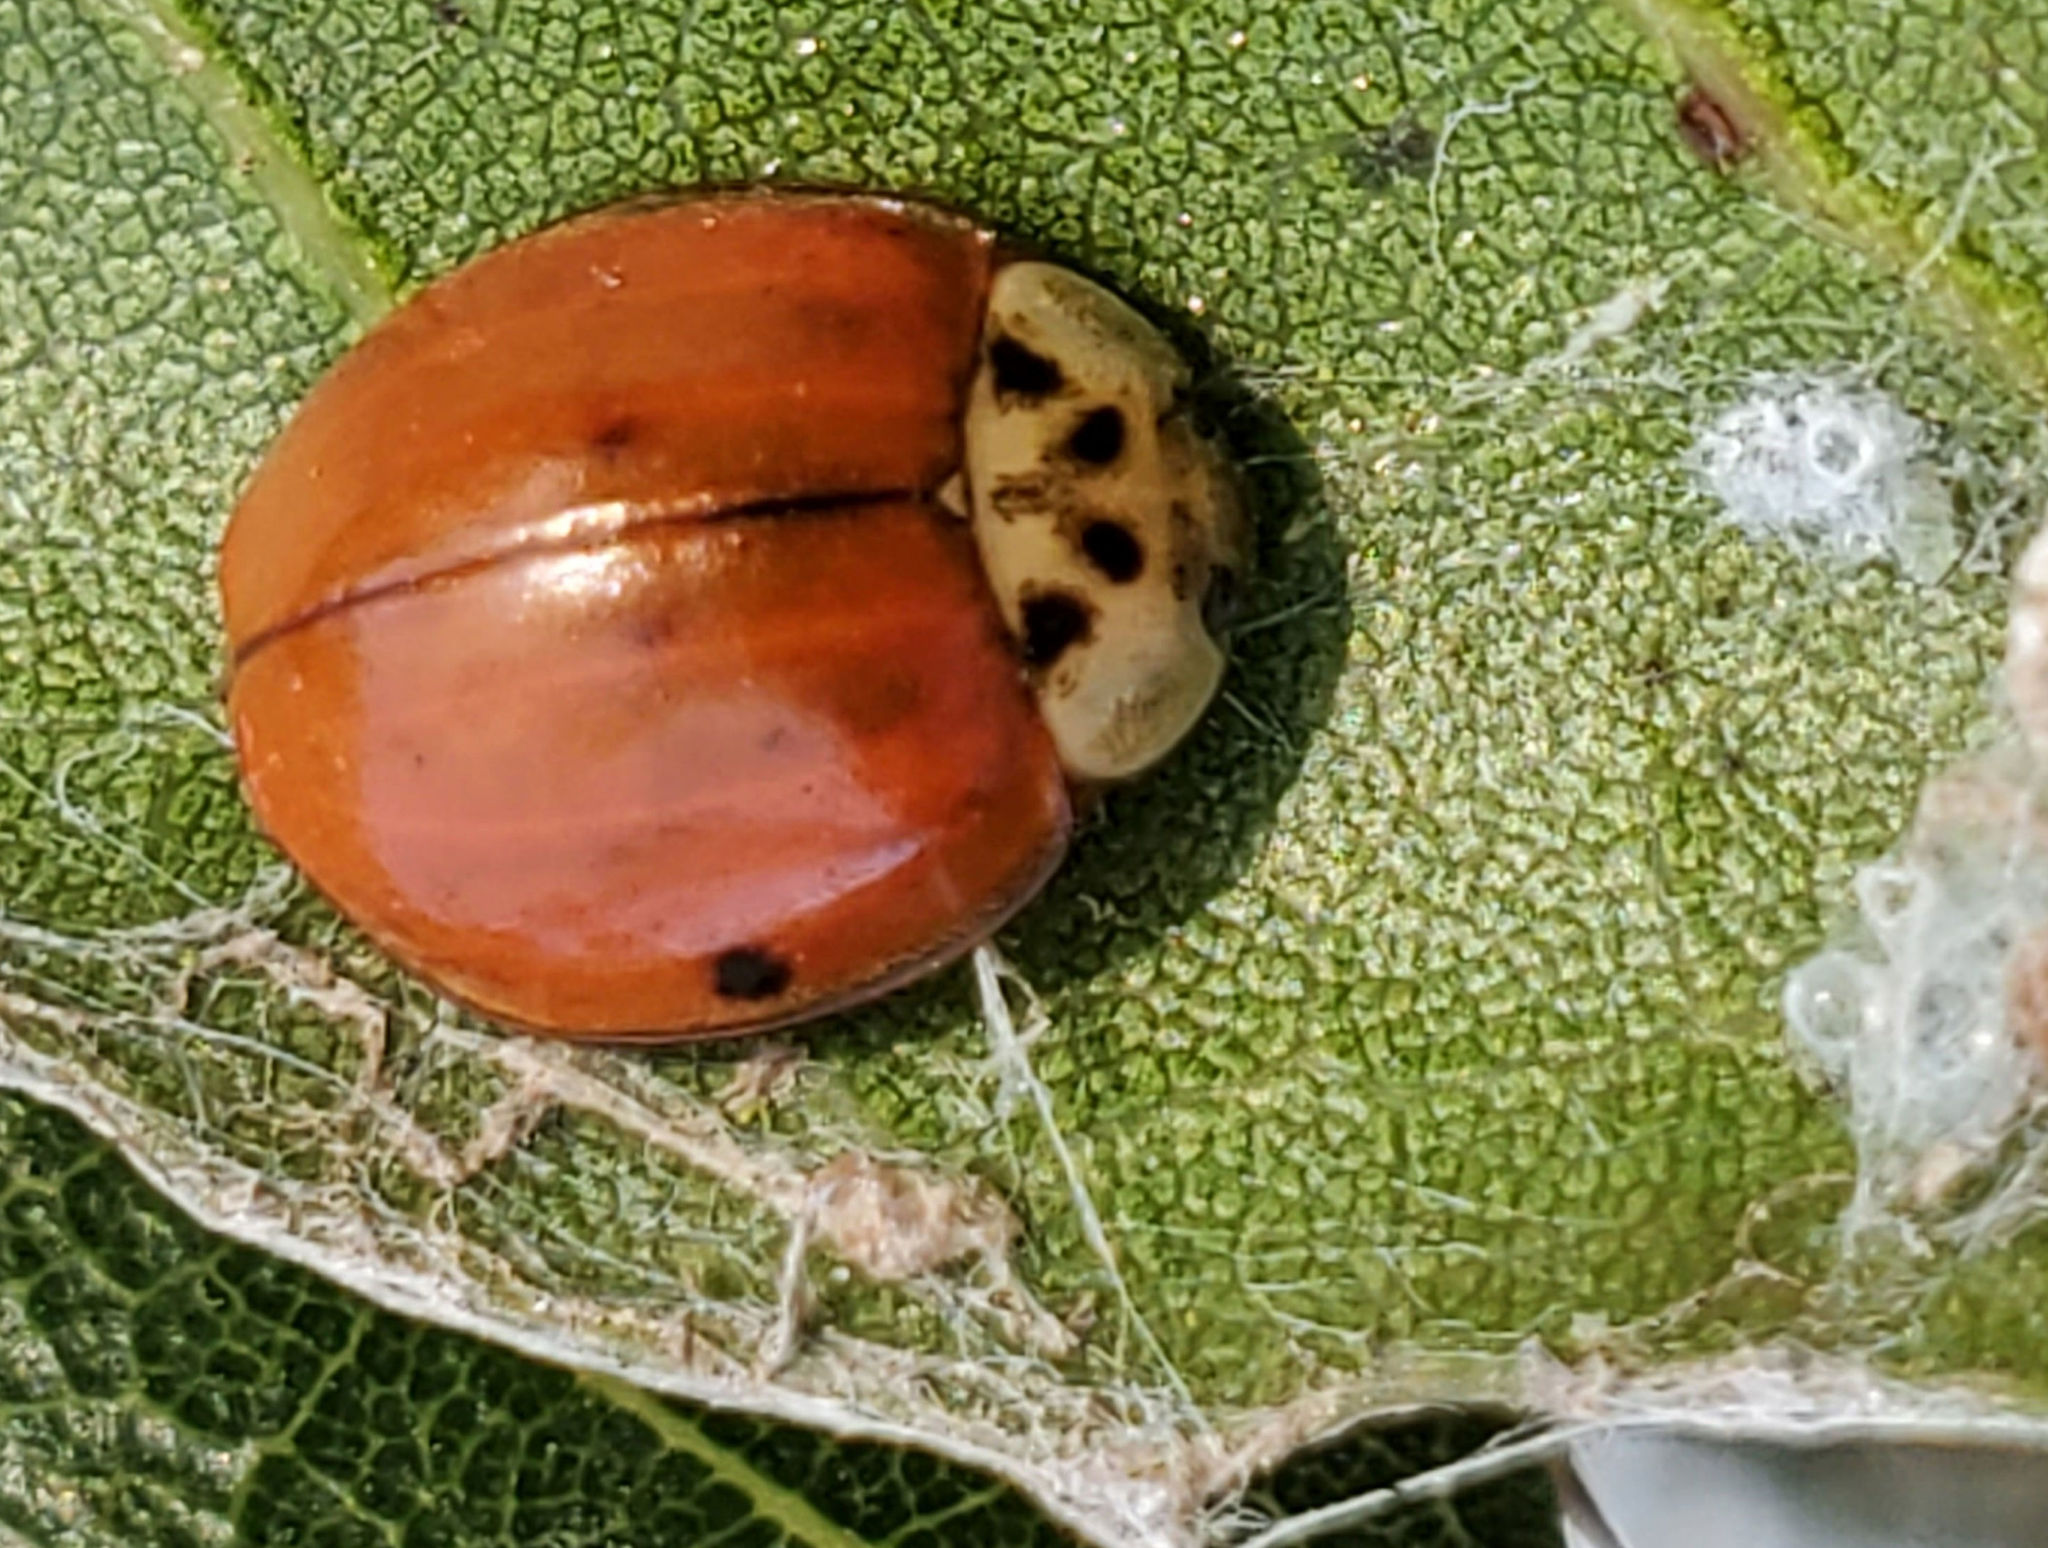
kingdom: Animalia
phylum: Arthropoda
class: Insecta
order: Coleoptera
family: Coccinellidae
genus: Harmonia
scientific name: Harmonia axyridis
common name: Harlequin ladybird
